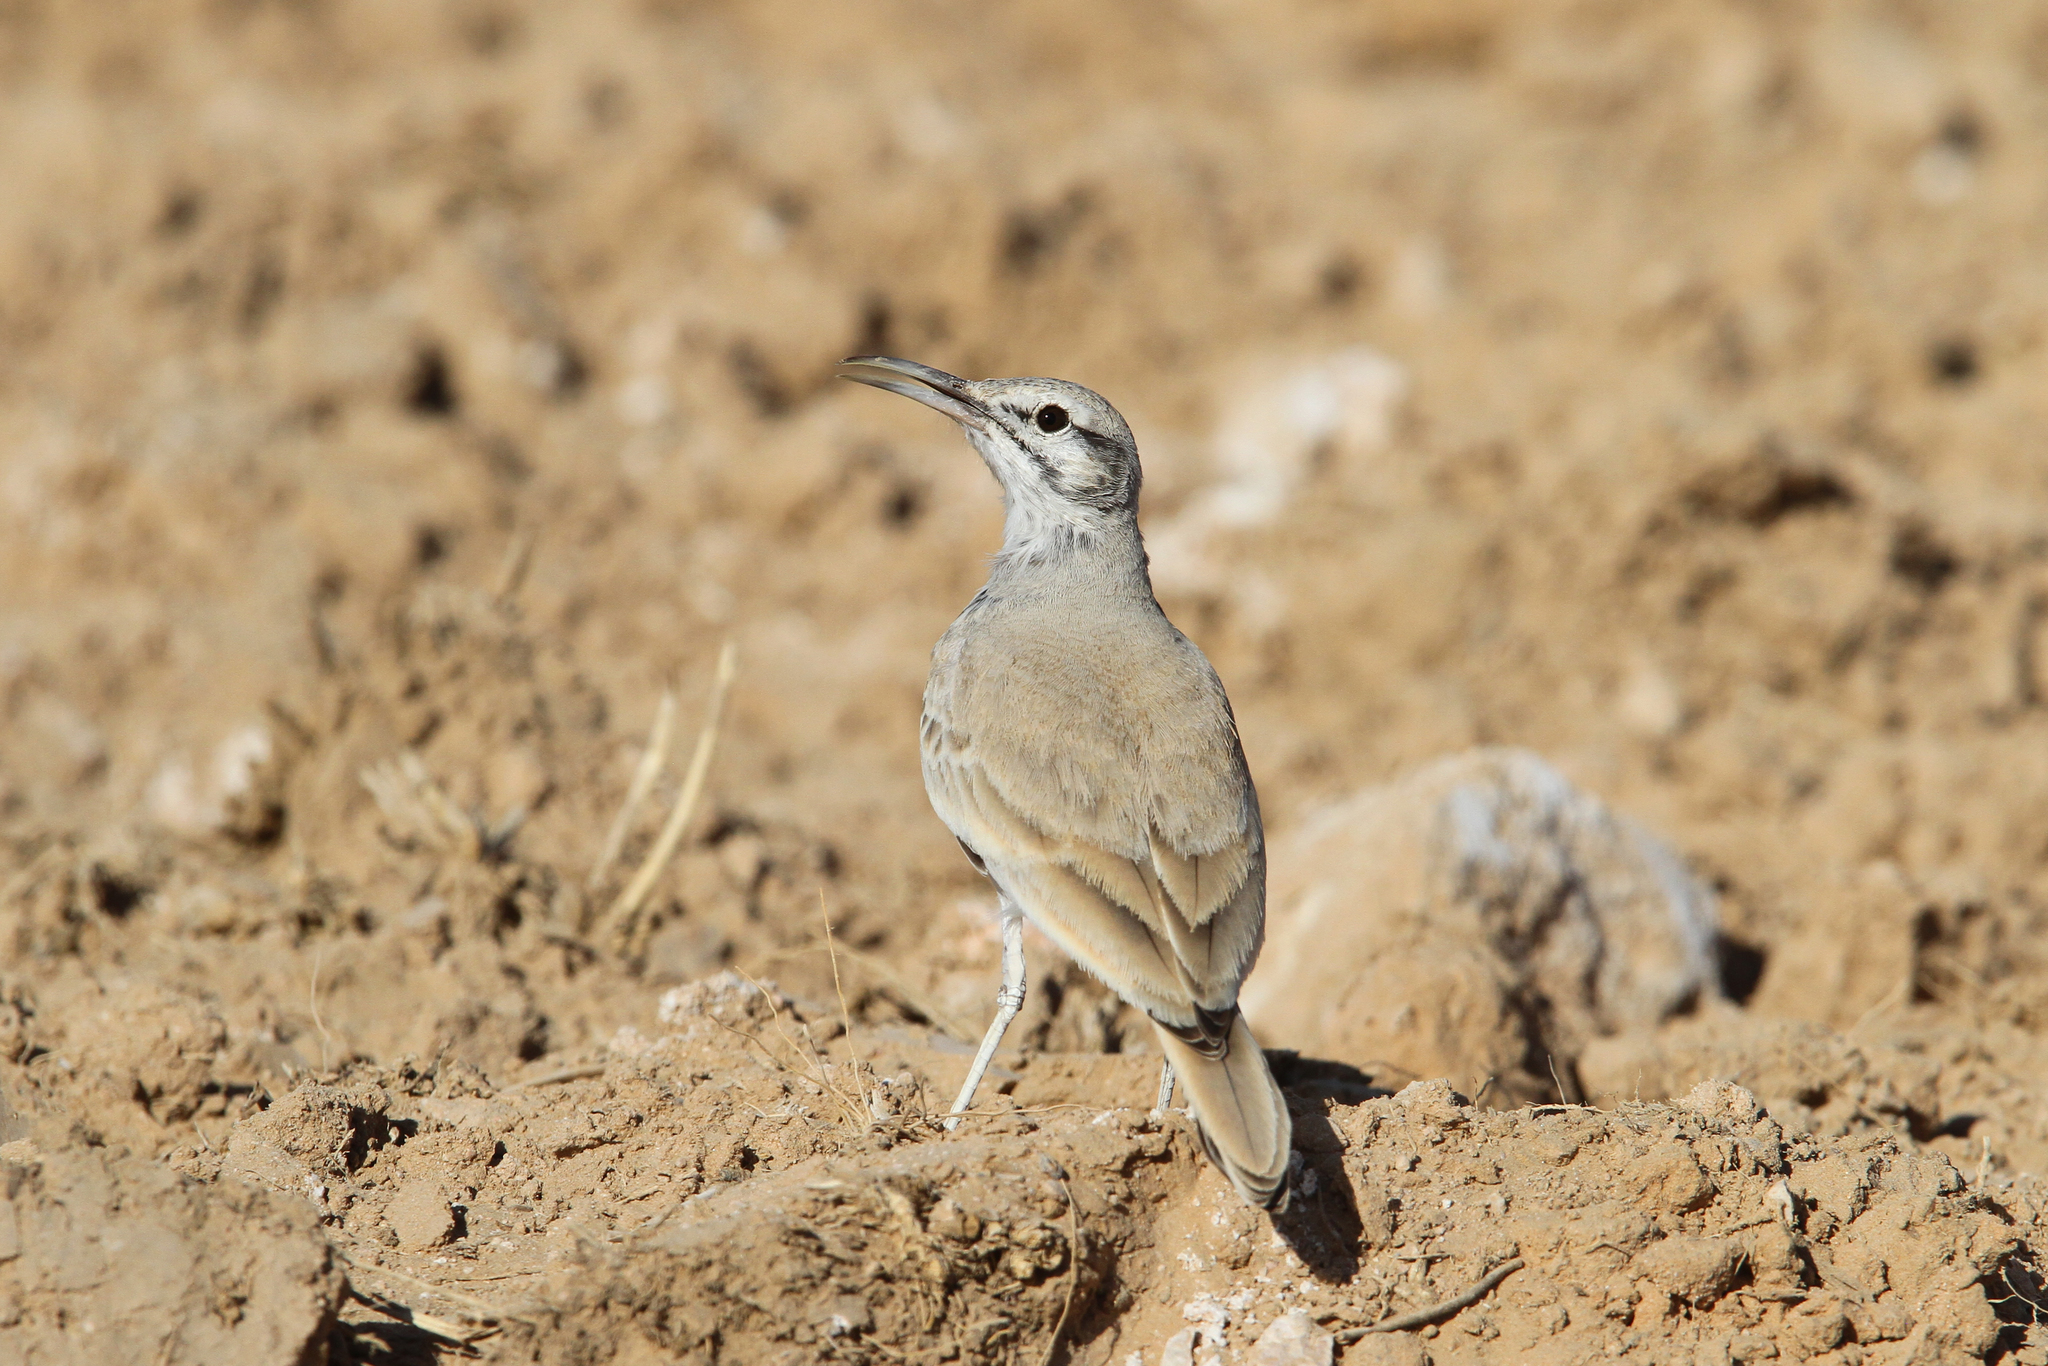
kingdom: Animalia
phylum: Chordata
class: Aves
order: Passeriformes
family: Alaudidae
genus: Alaemon
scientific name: Alaemon alaudipes
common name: Greater hoopoe-lark
